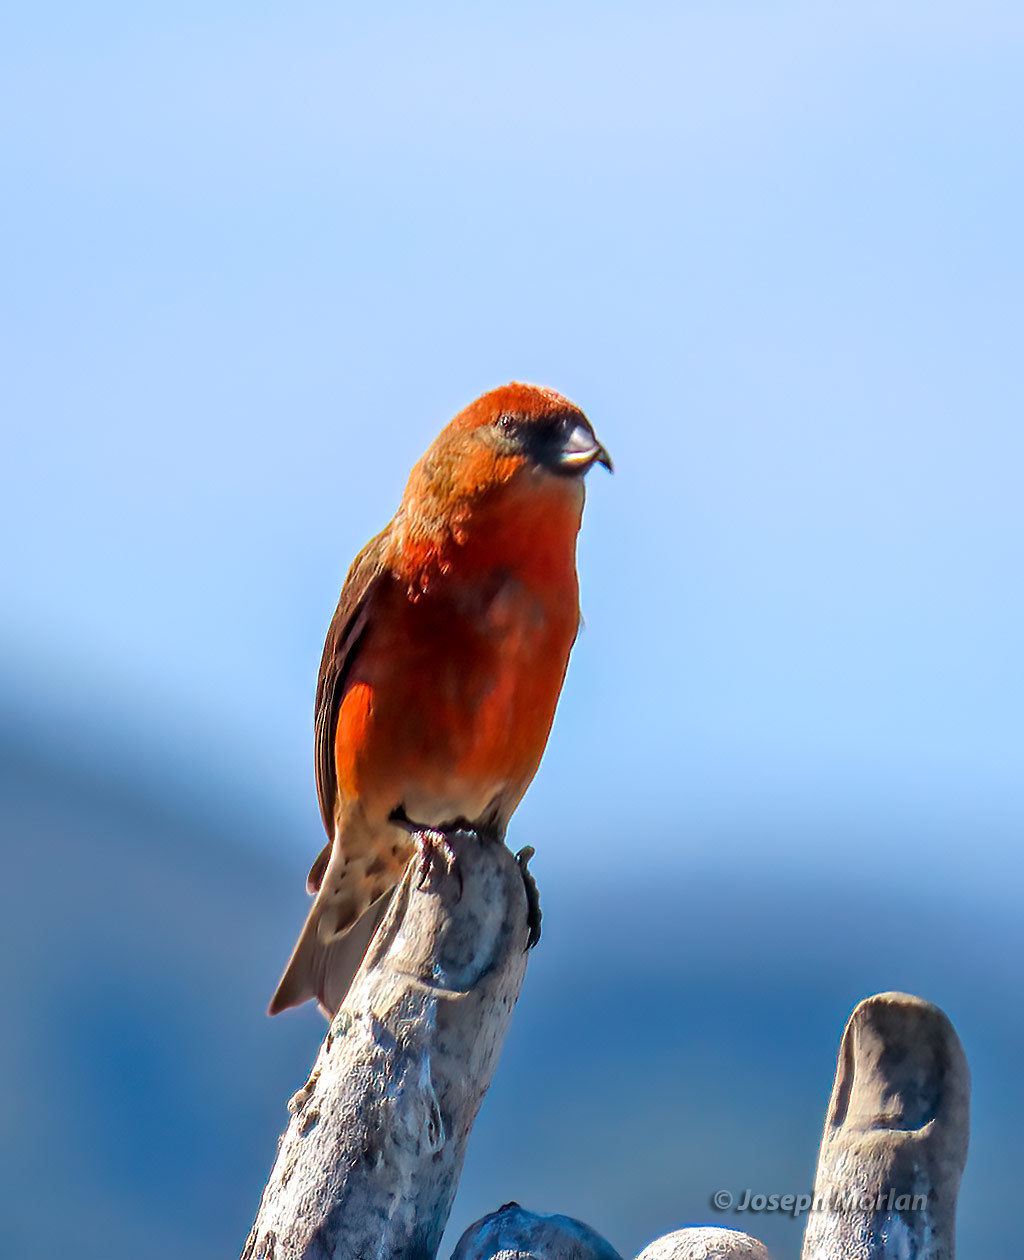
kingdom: Animalia
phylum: Chordata
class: Aves
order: Passeriformes
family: Fringillidae
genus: Loxia
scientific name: Loxia curvirostra
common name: Red crossbill
